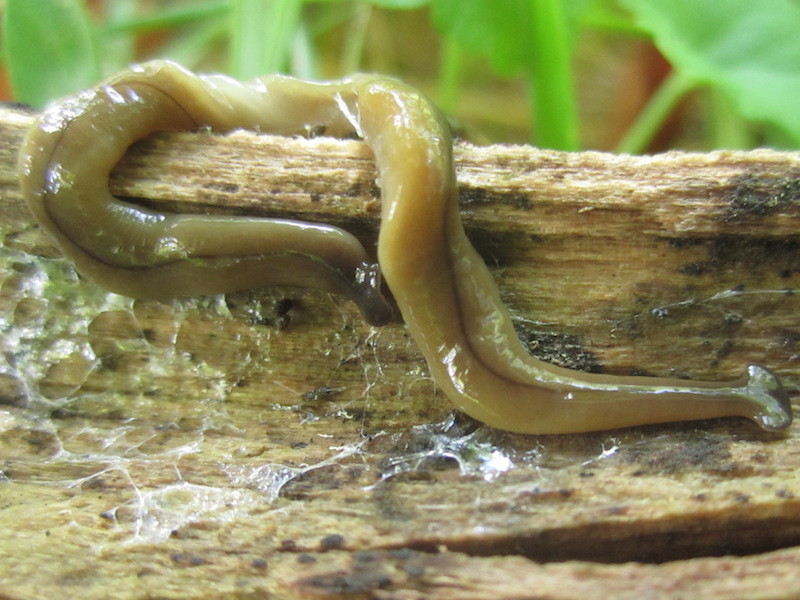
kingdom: Animalia
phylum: Platyhelminthes
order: Tricladida
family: Geoplanidae
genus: Bipalium
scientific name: Bipalium adventitium
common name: Land planarian
